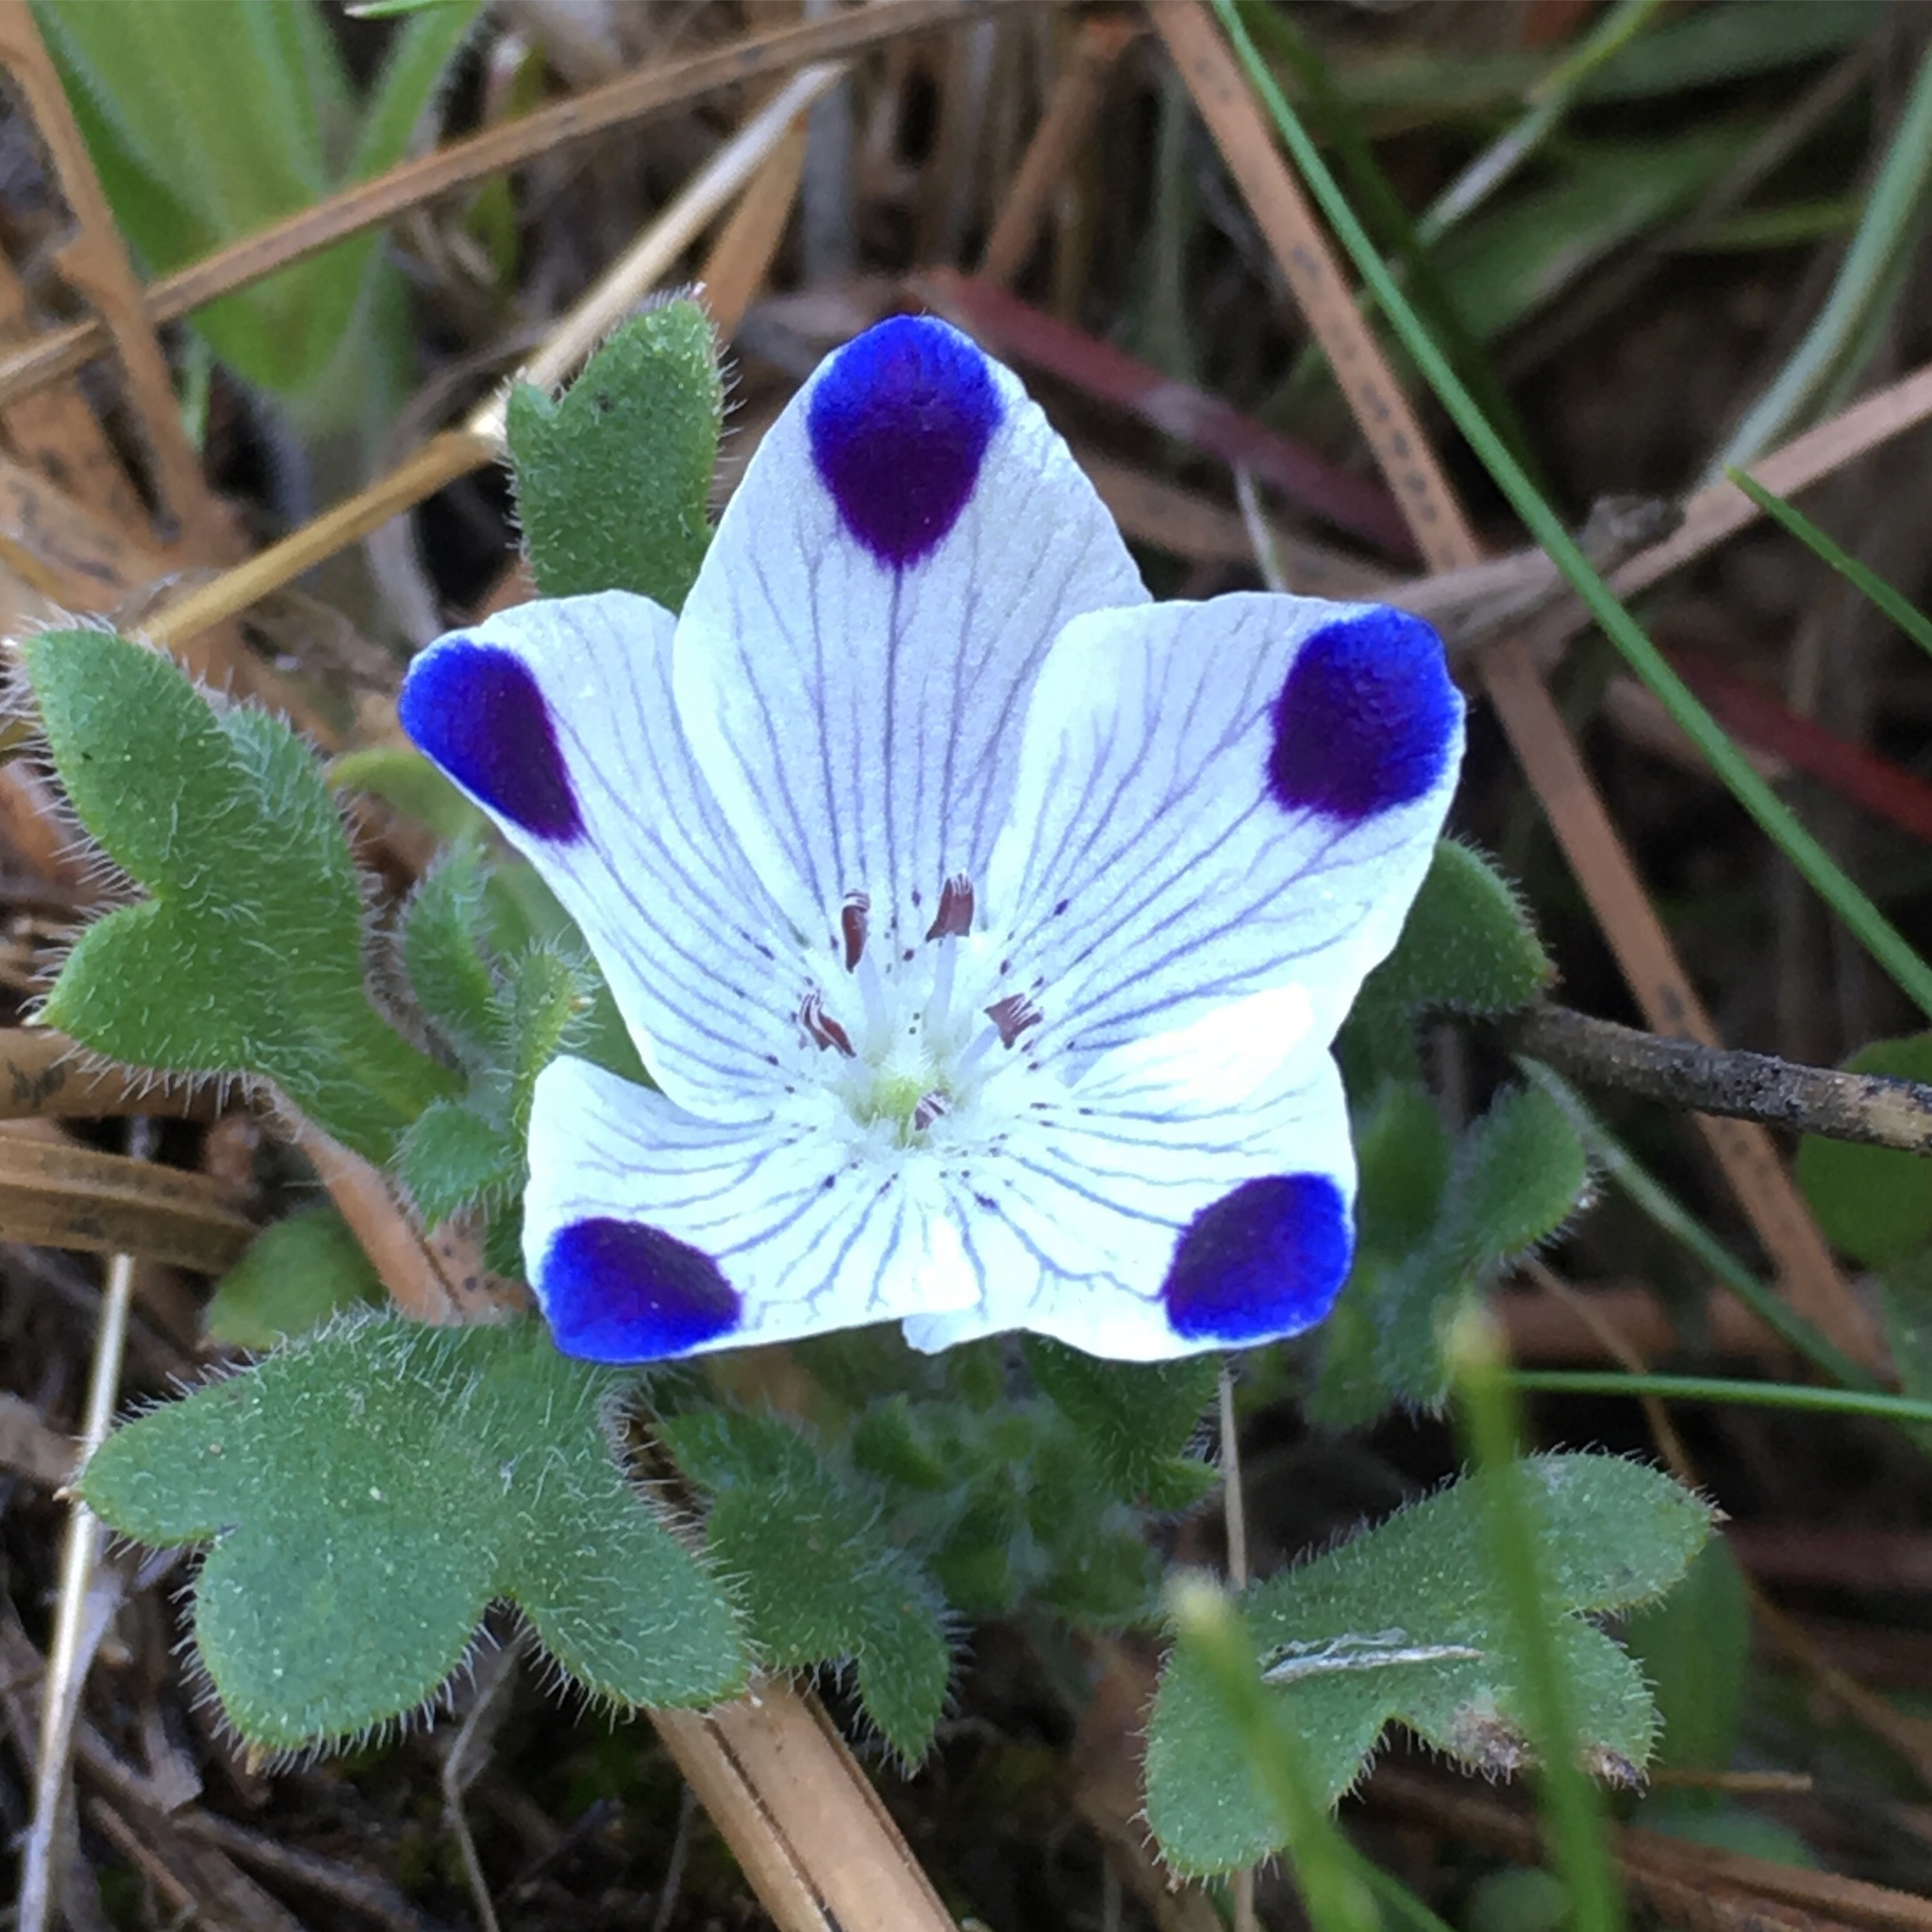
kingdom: Plantae
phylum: Tracheophyta
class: Magnoliopsida
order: Boraginales
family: Hydrophyllaceae
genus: Nemophila
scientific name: Nemophila maculata
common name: Fivespot
